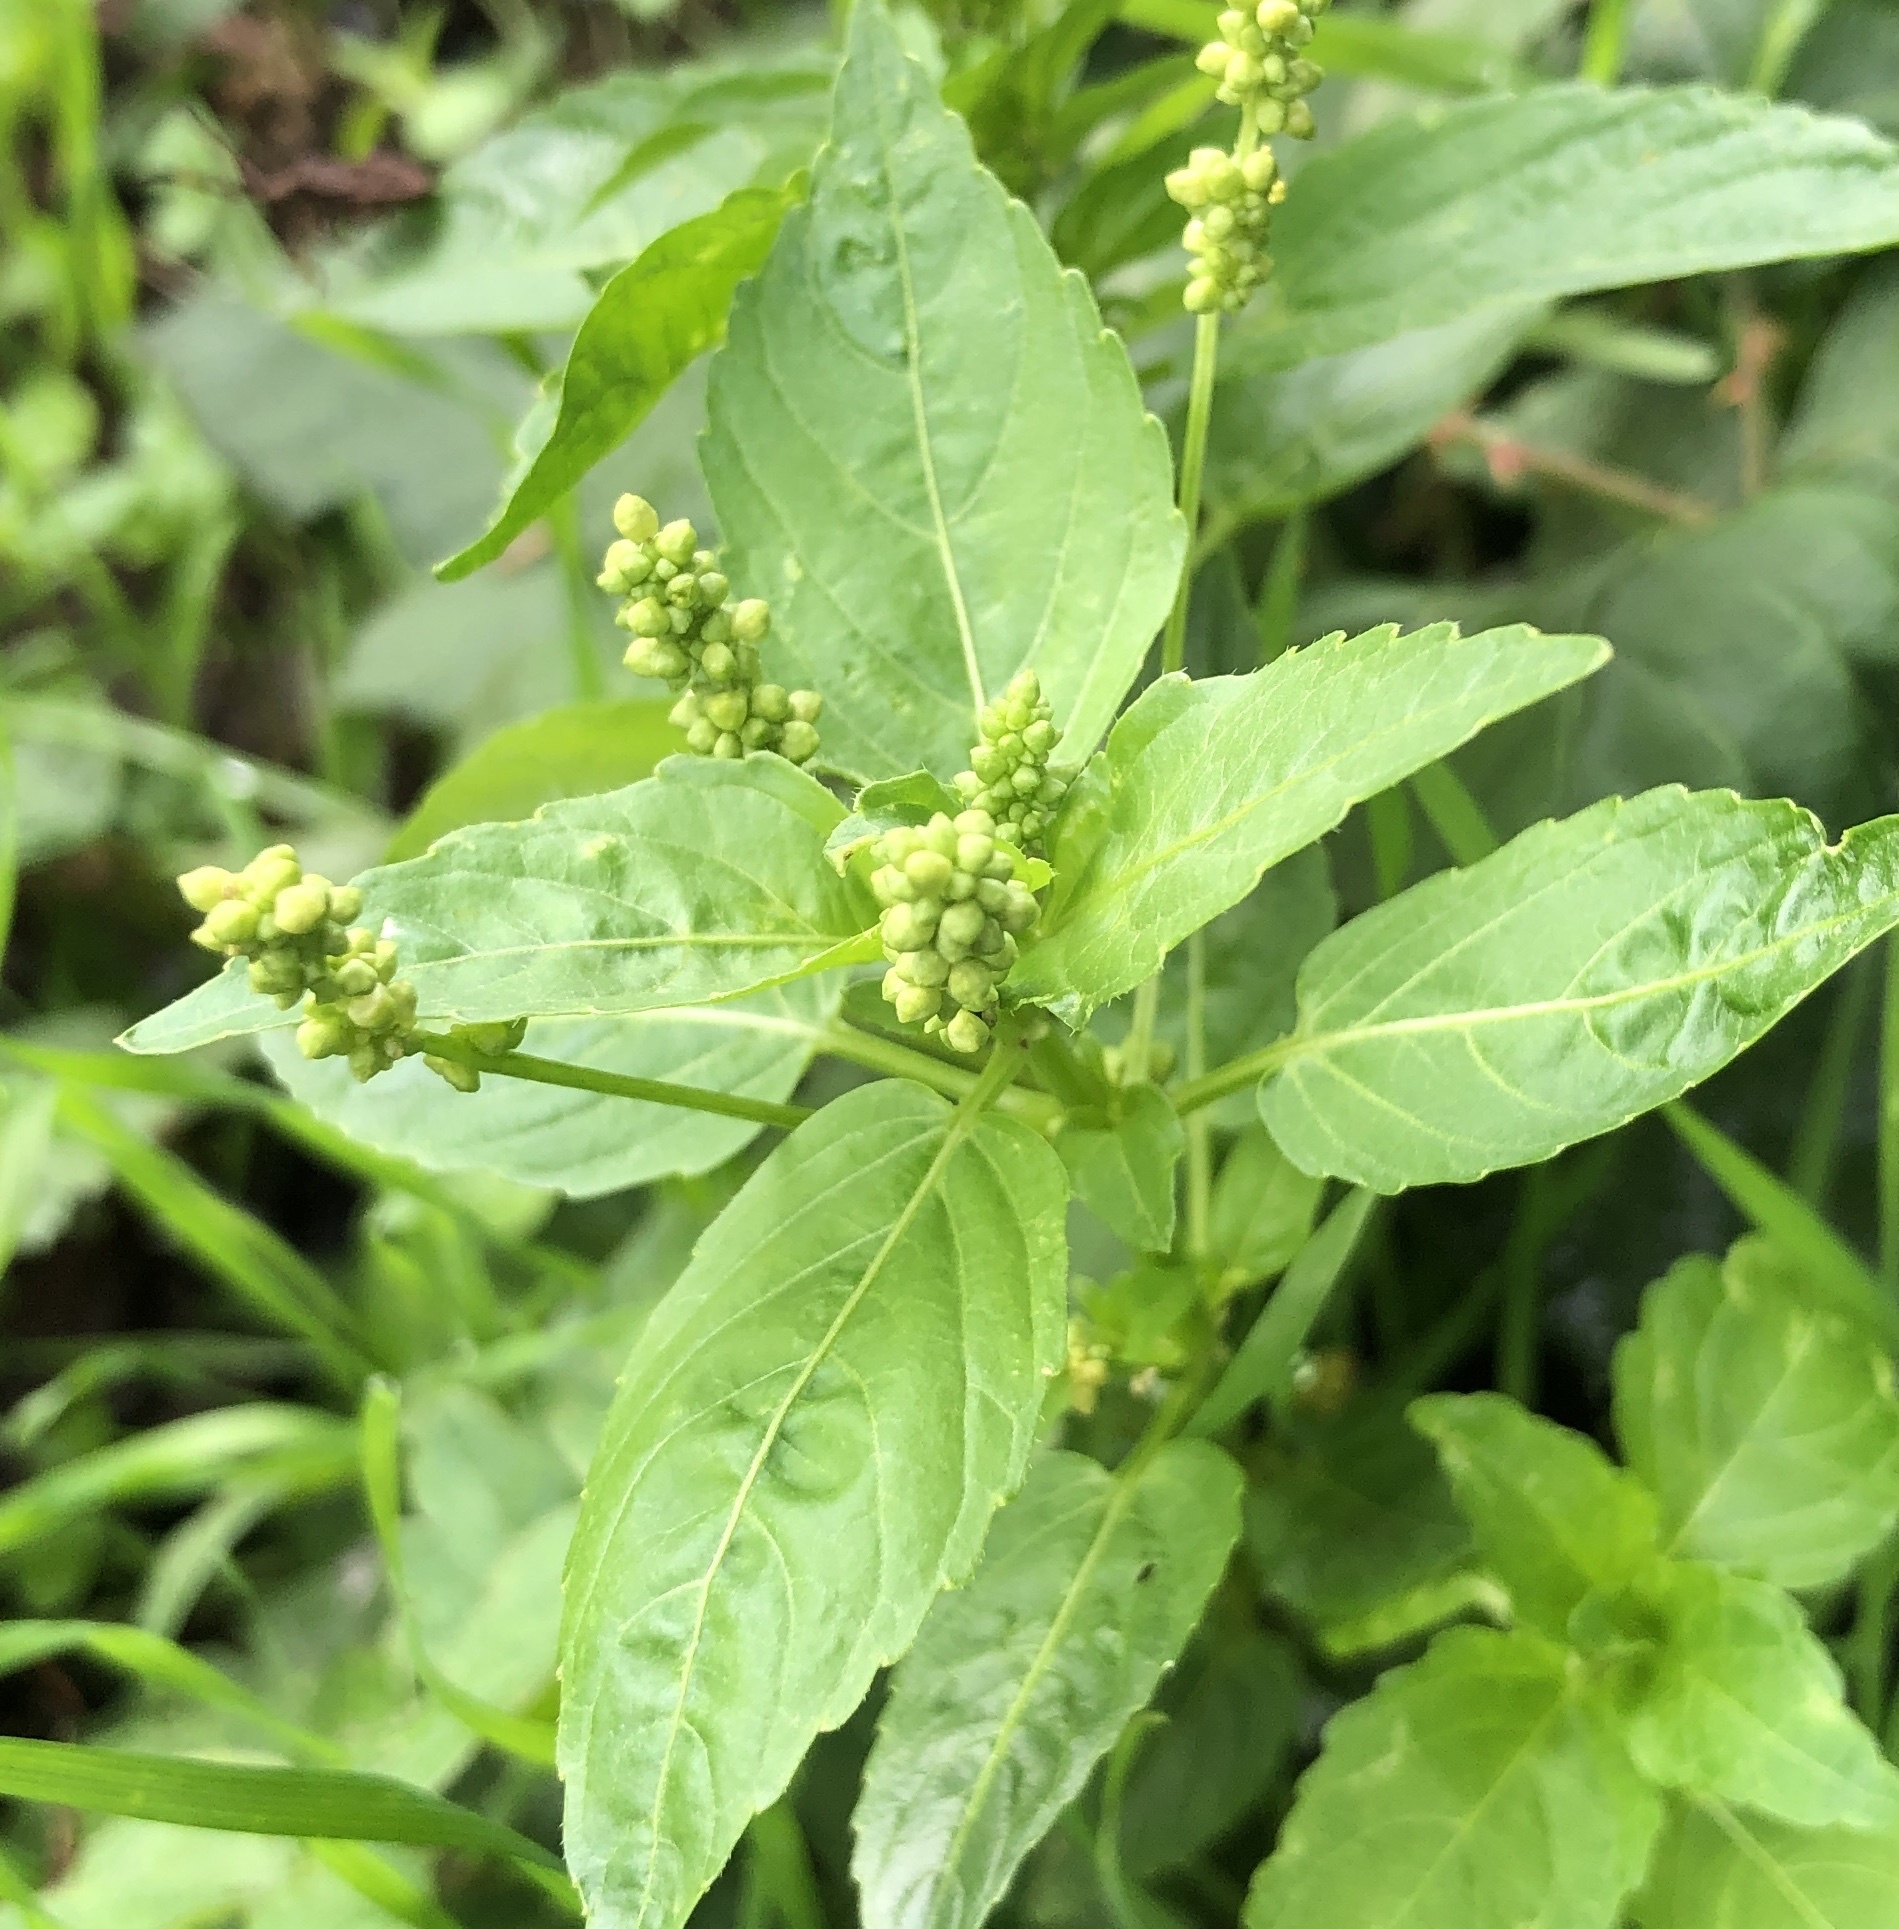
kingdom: Plantae
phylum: Tracheophyta
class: Magnoliopsida
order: Malpighiales
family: Euphorbiaceae
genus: Mercurialis
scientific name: Mercurialis annua
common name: Annual mercury
